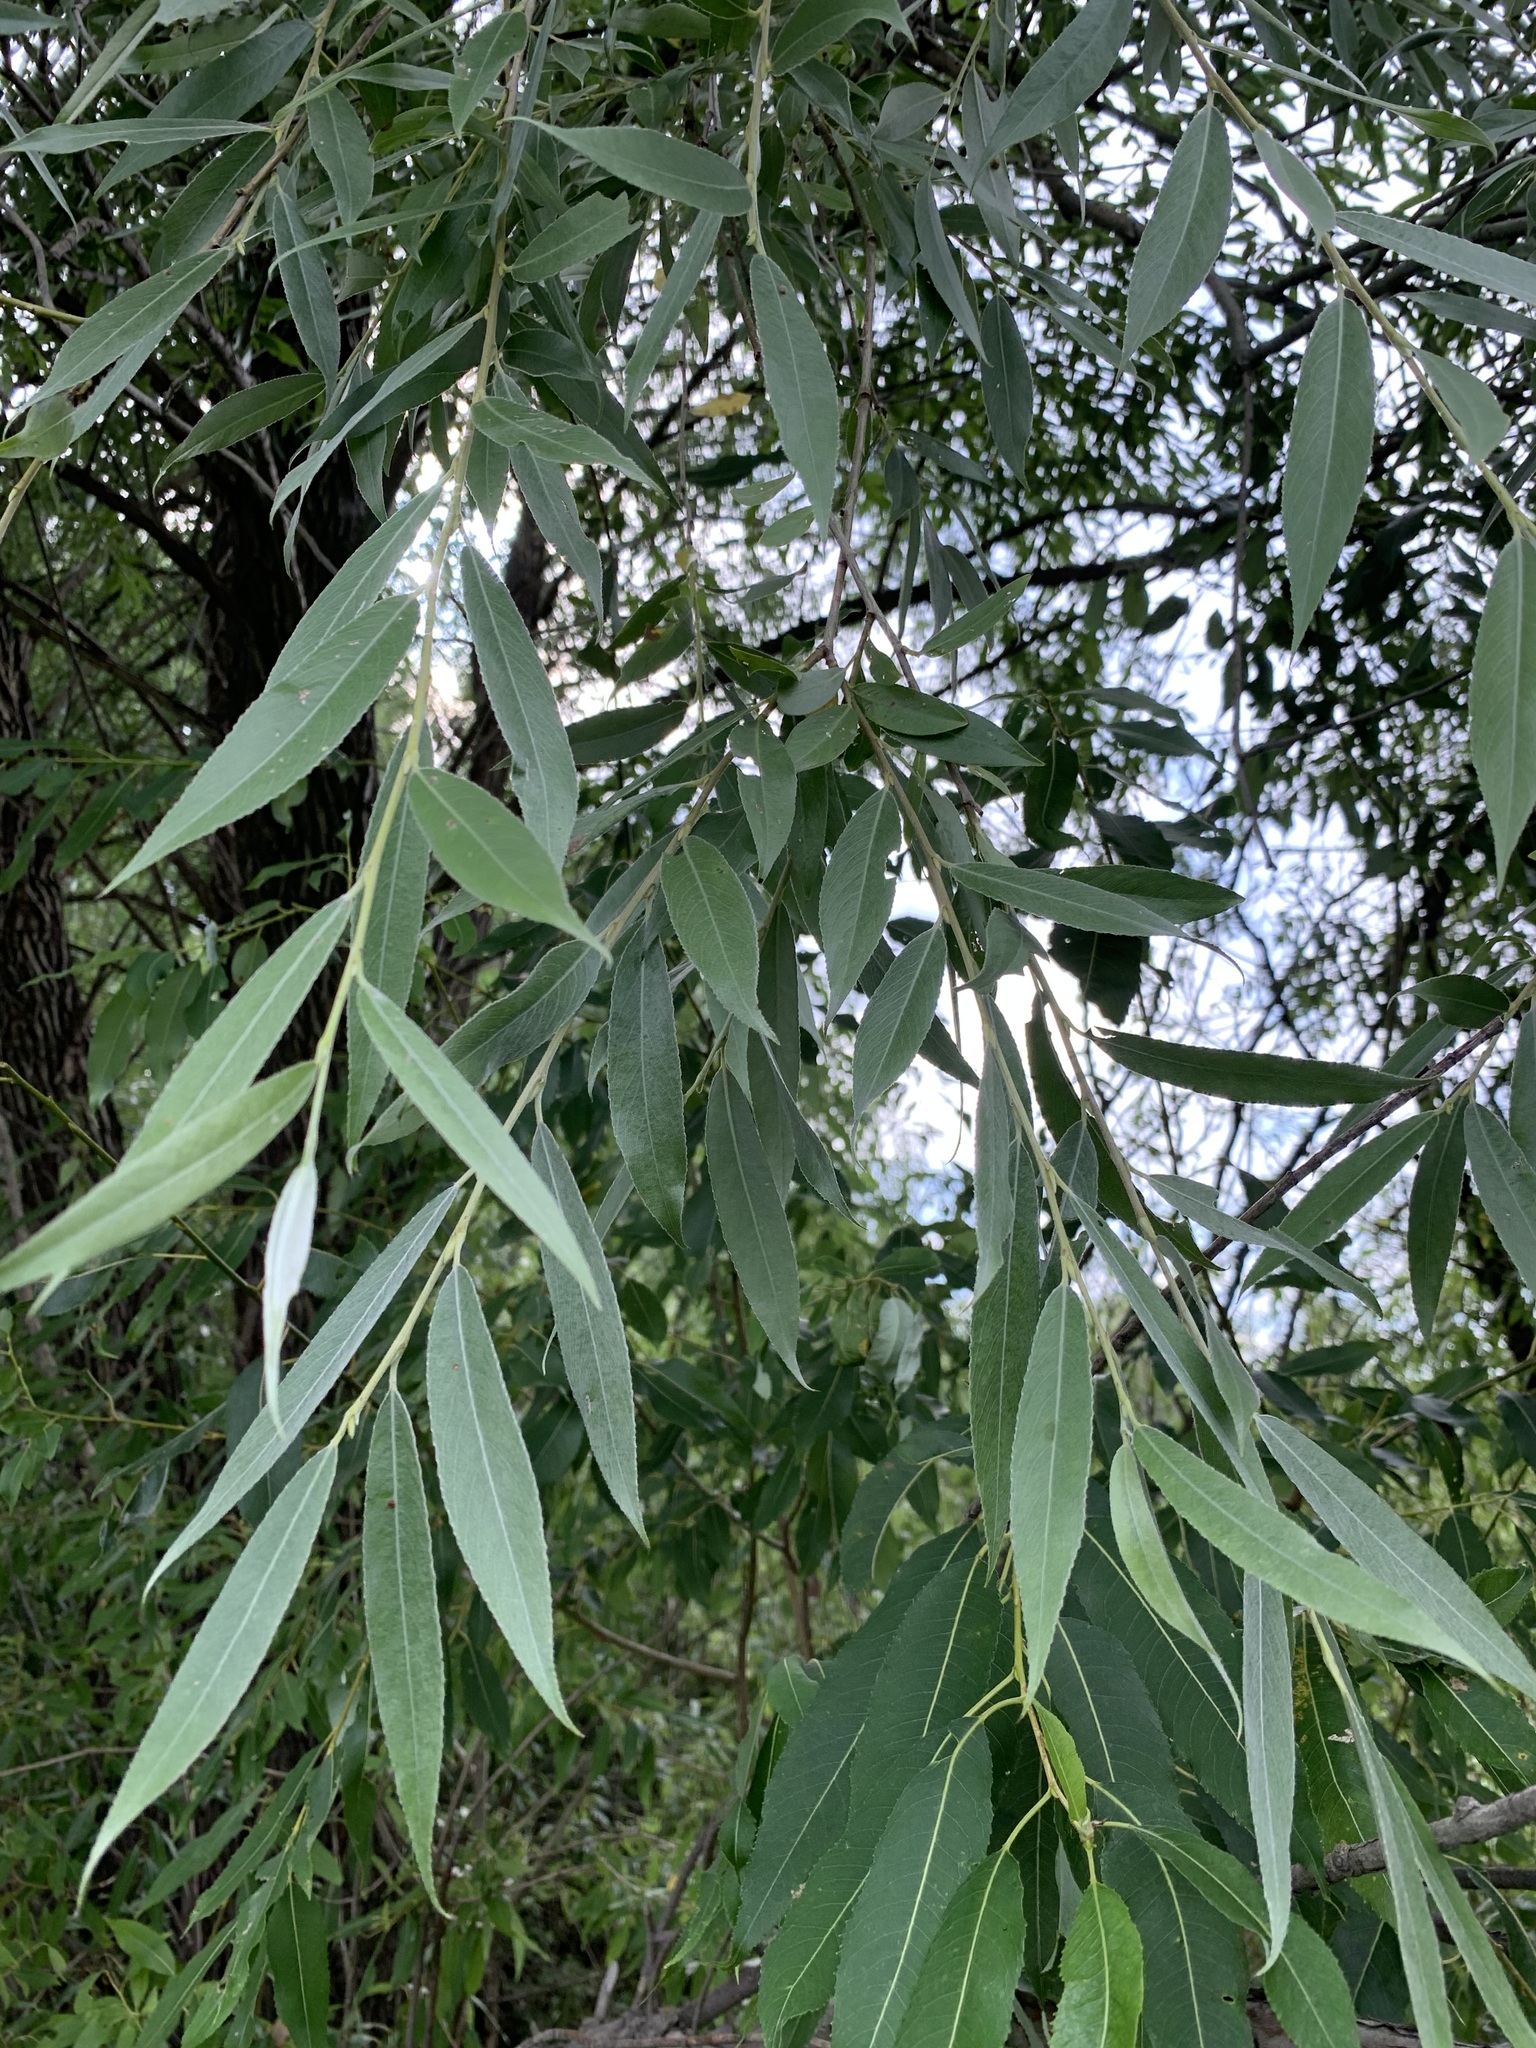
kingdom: Plantae
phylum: Tracheophyta
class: Magnoliopsida
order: Malpighiales
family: Salicaceae
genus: Salix
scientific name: Salix alba
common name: White willow
